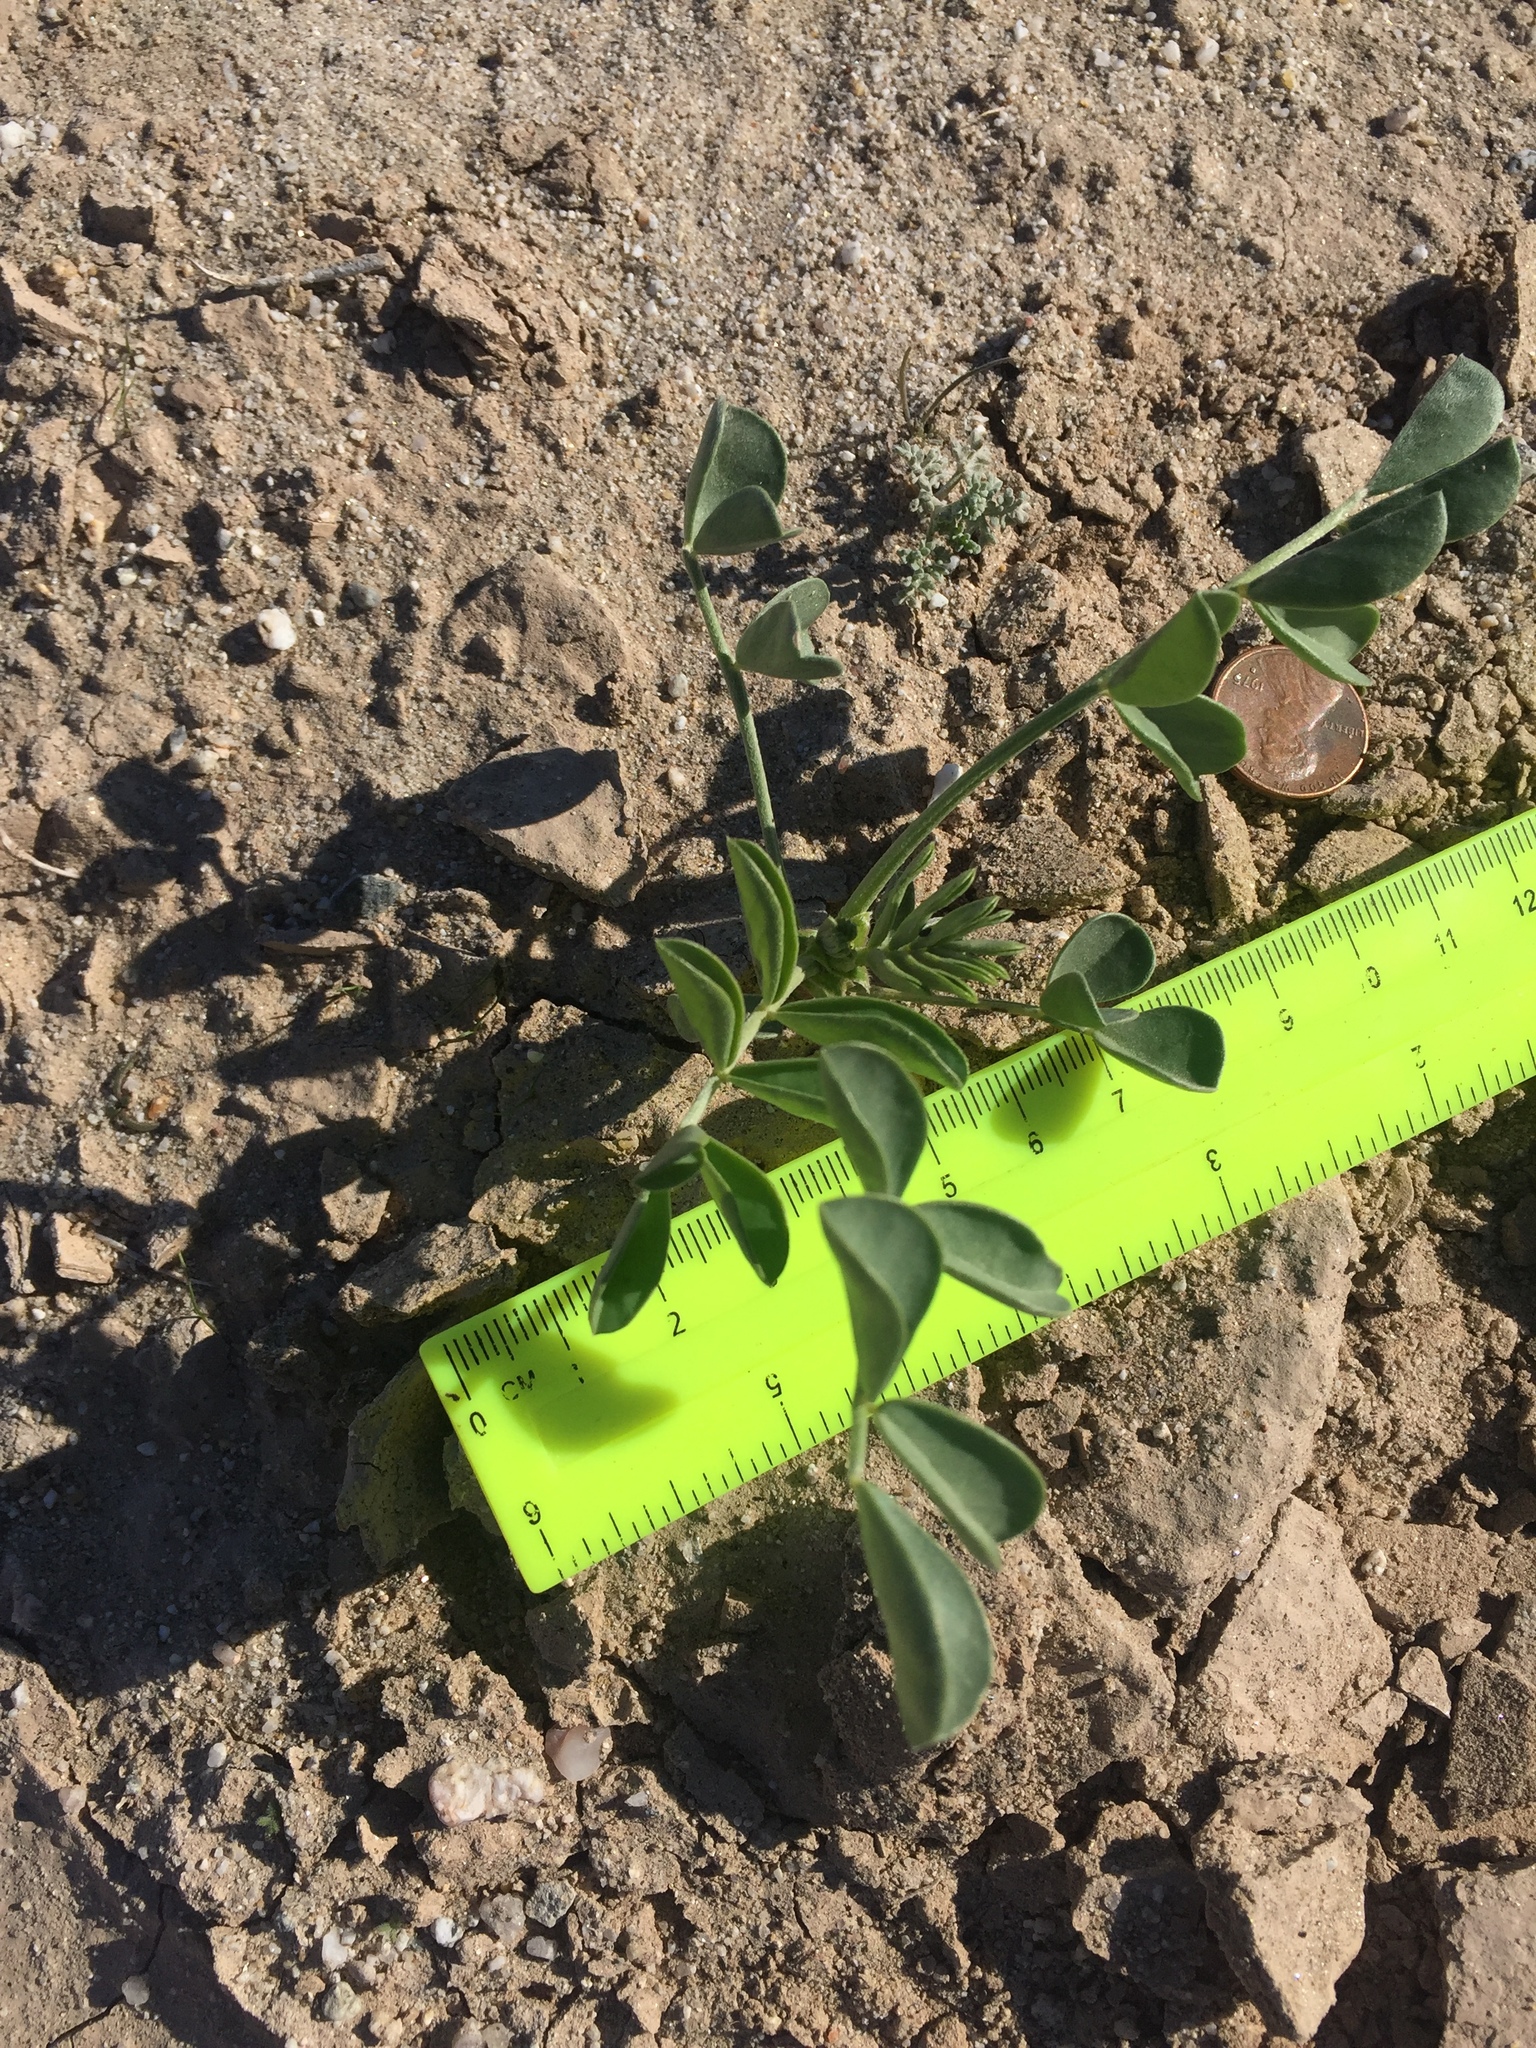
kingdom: Plantae
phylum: Tracheophyta
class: Magnoliopsida
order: Fabales
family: Fabaceae
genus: Astragalus
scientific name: Astragalus crotalariae
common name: Salton milkvetch
